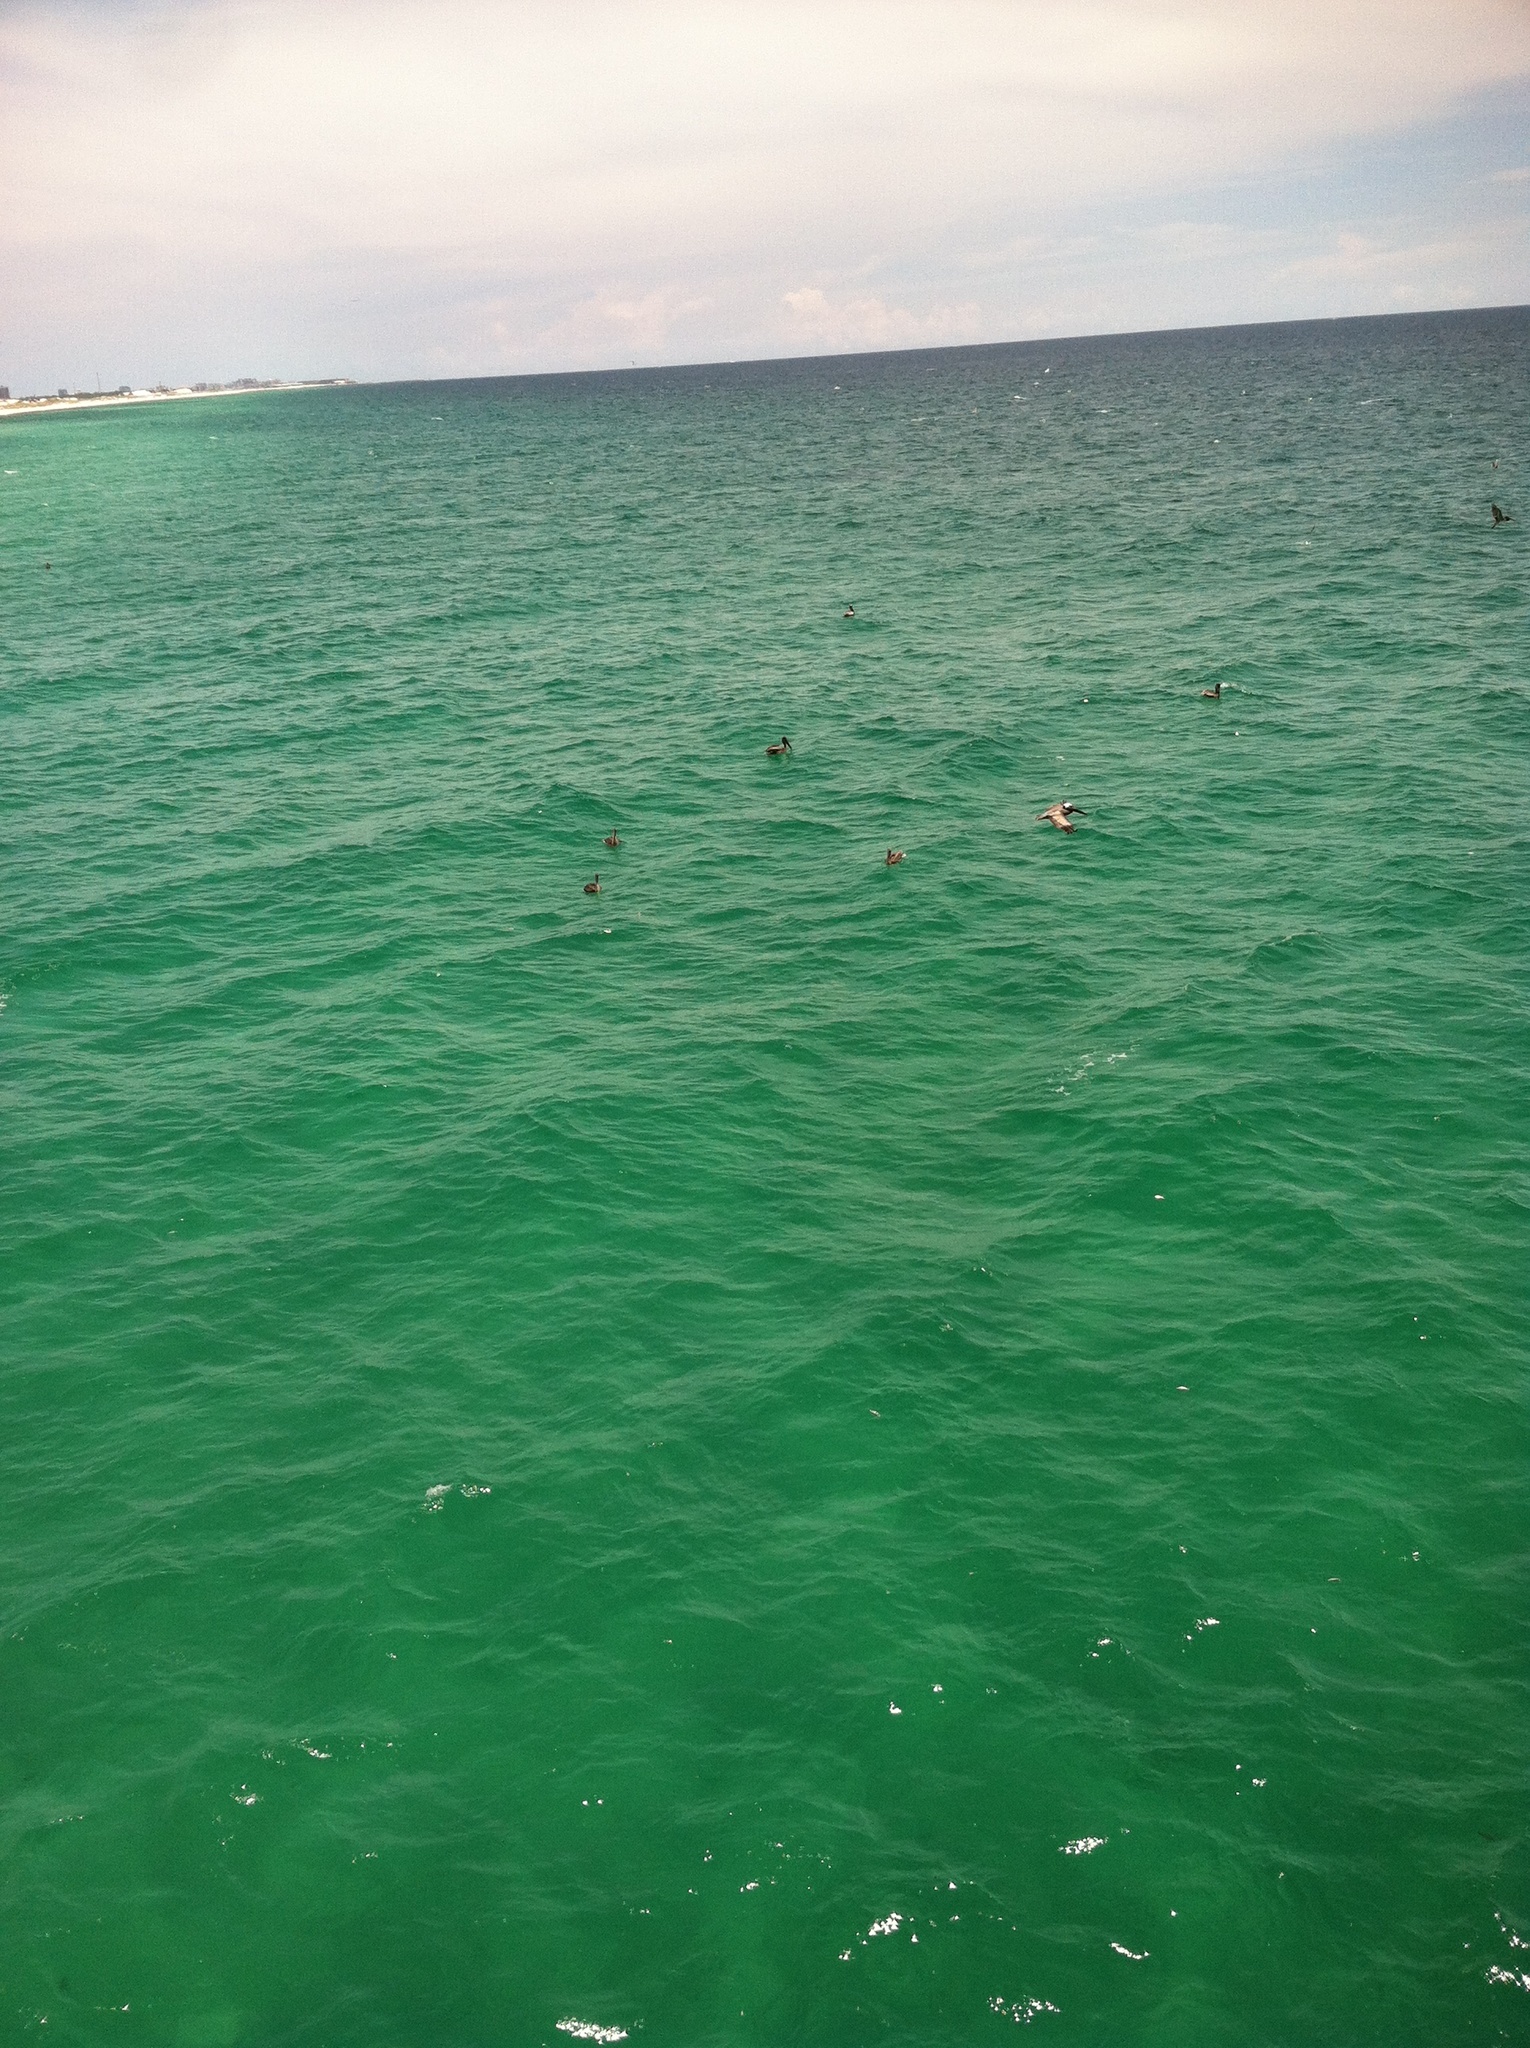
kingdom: Animalia
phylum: Chordata
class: Aves
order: Pelecaniformes
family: Pelecanidae
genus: Pelecanus
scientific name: Pelecanus occidentalis
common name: Brown pelican
